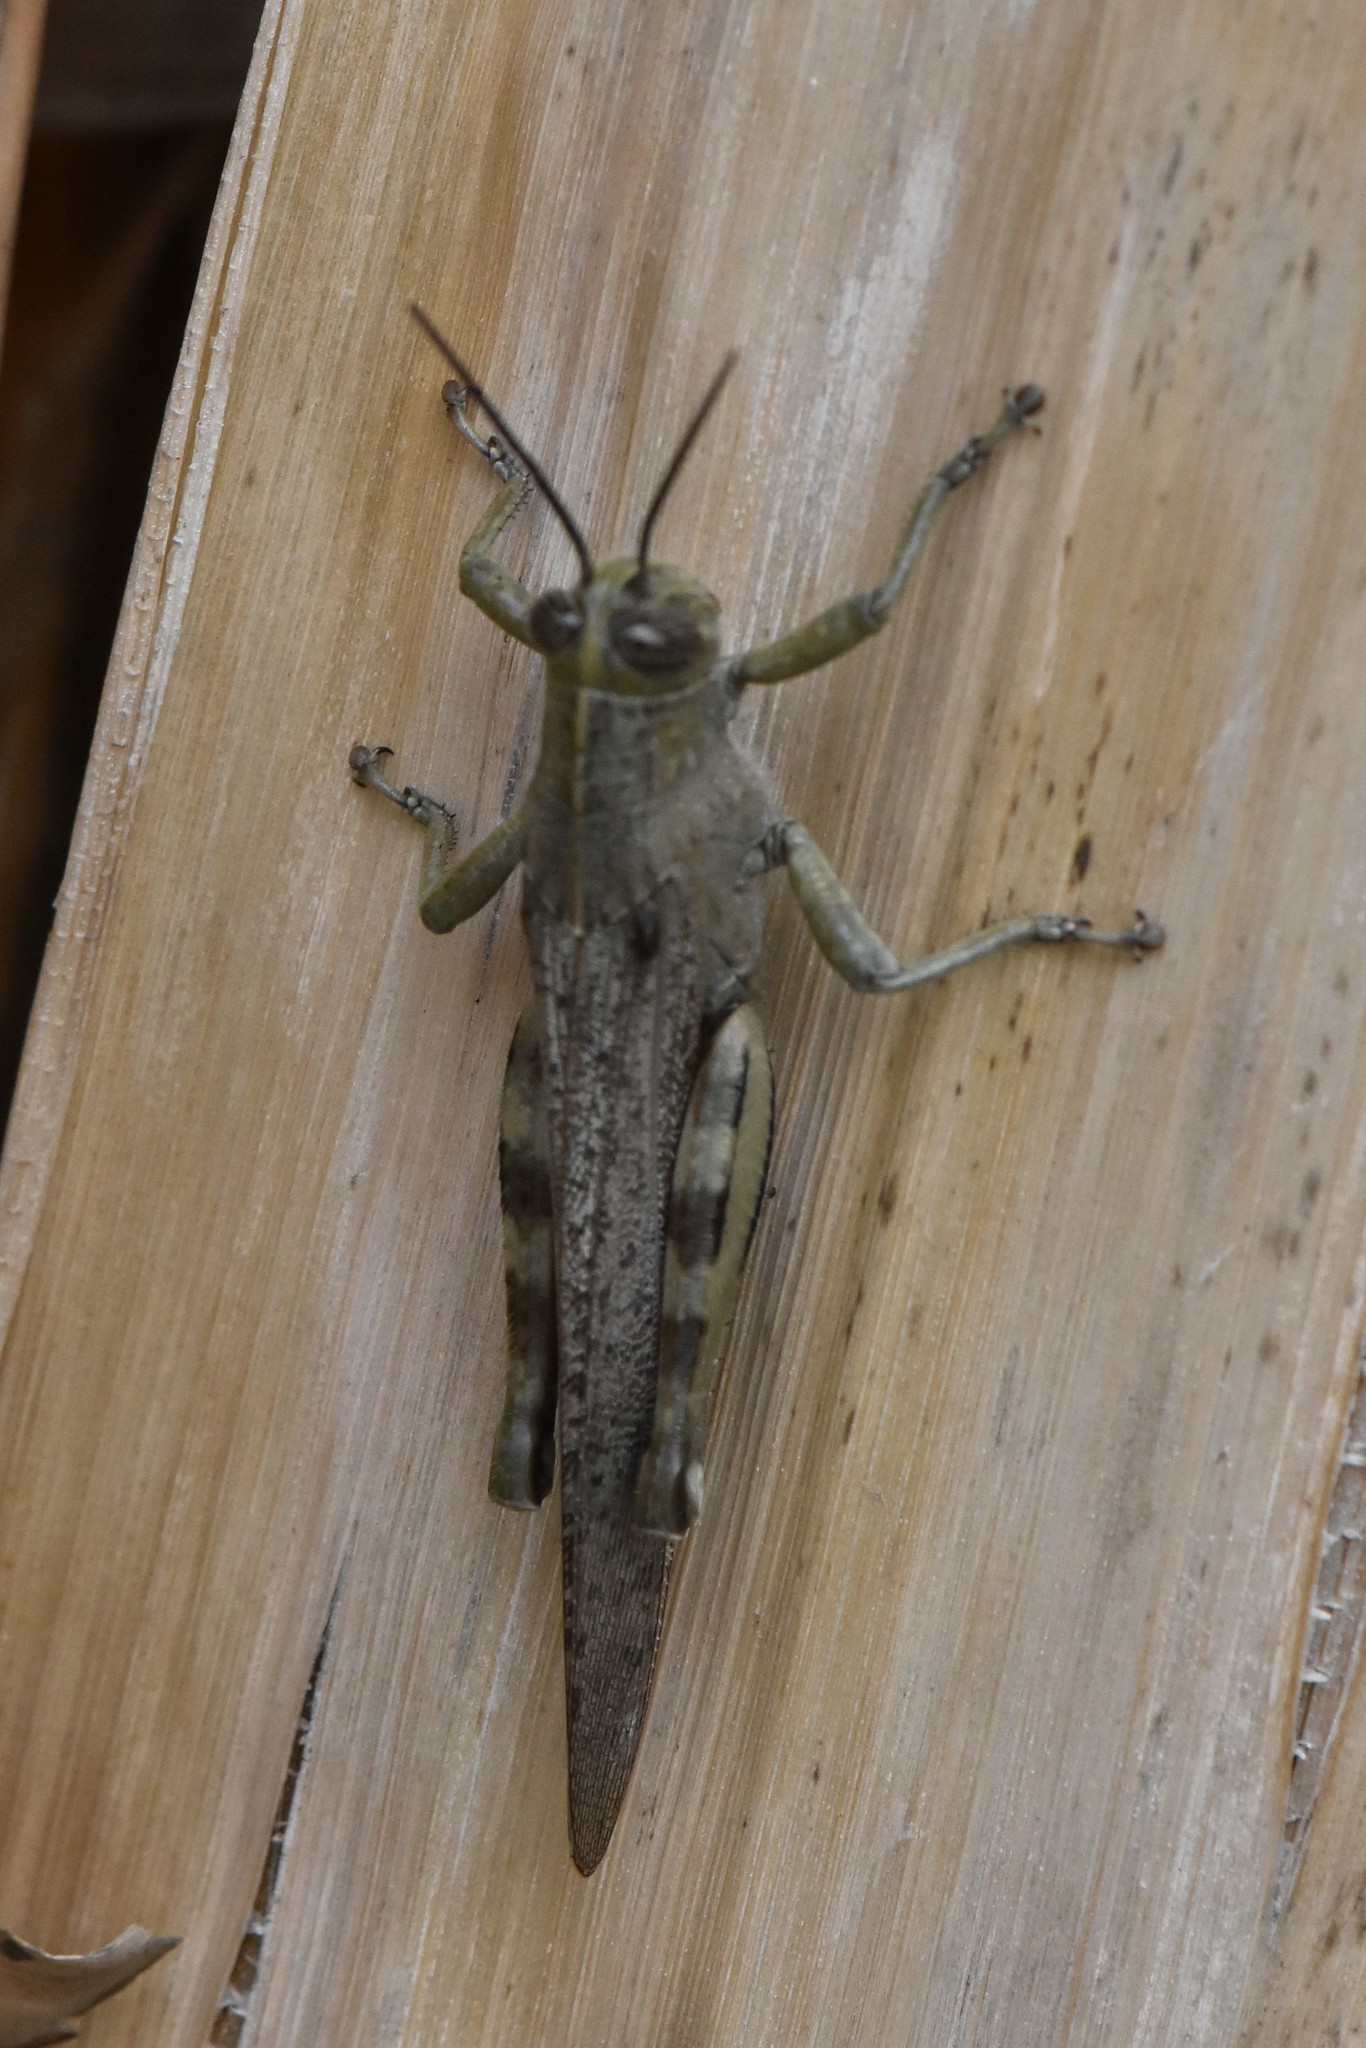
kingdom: Animalia
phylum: Arthropoda
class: Insecta
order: Orthoptera
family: Acrididae
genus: Anacridium
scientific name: Anacridium aegyptium
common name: Egyptian grasshopper
